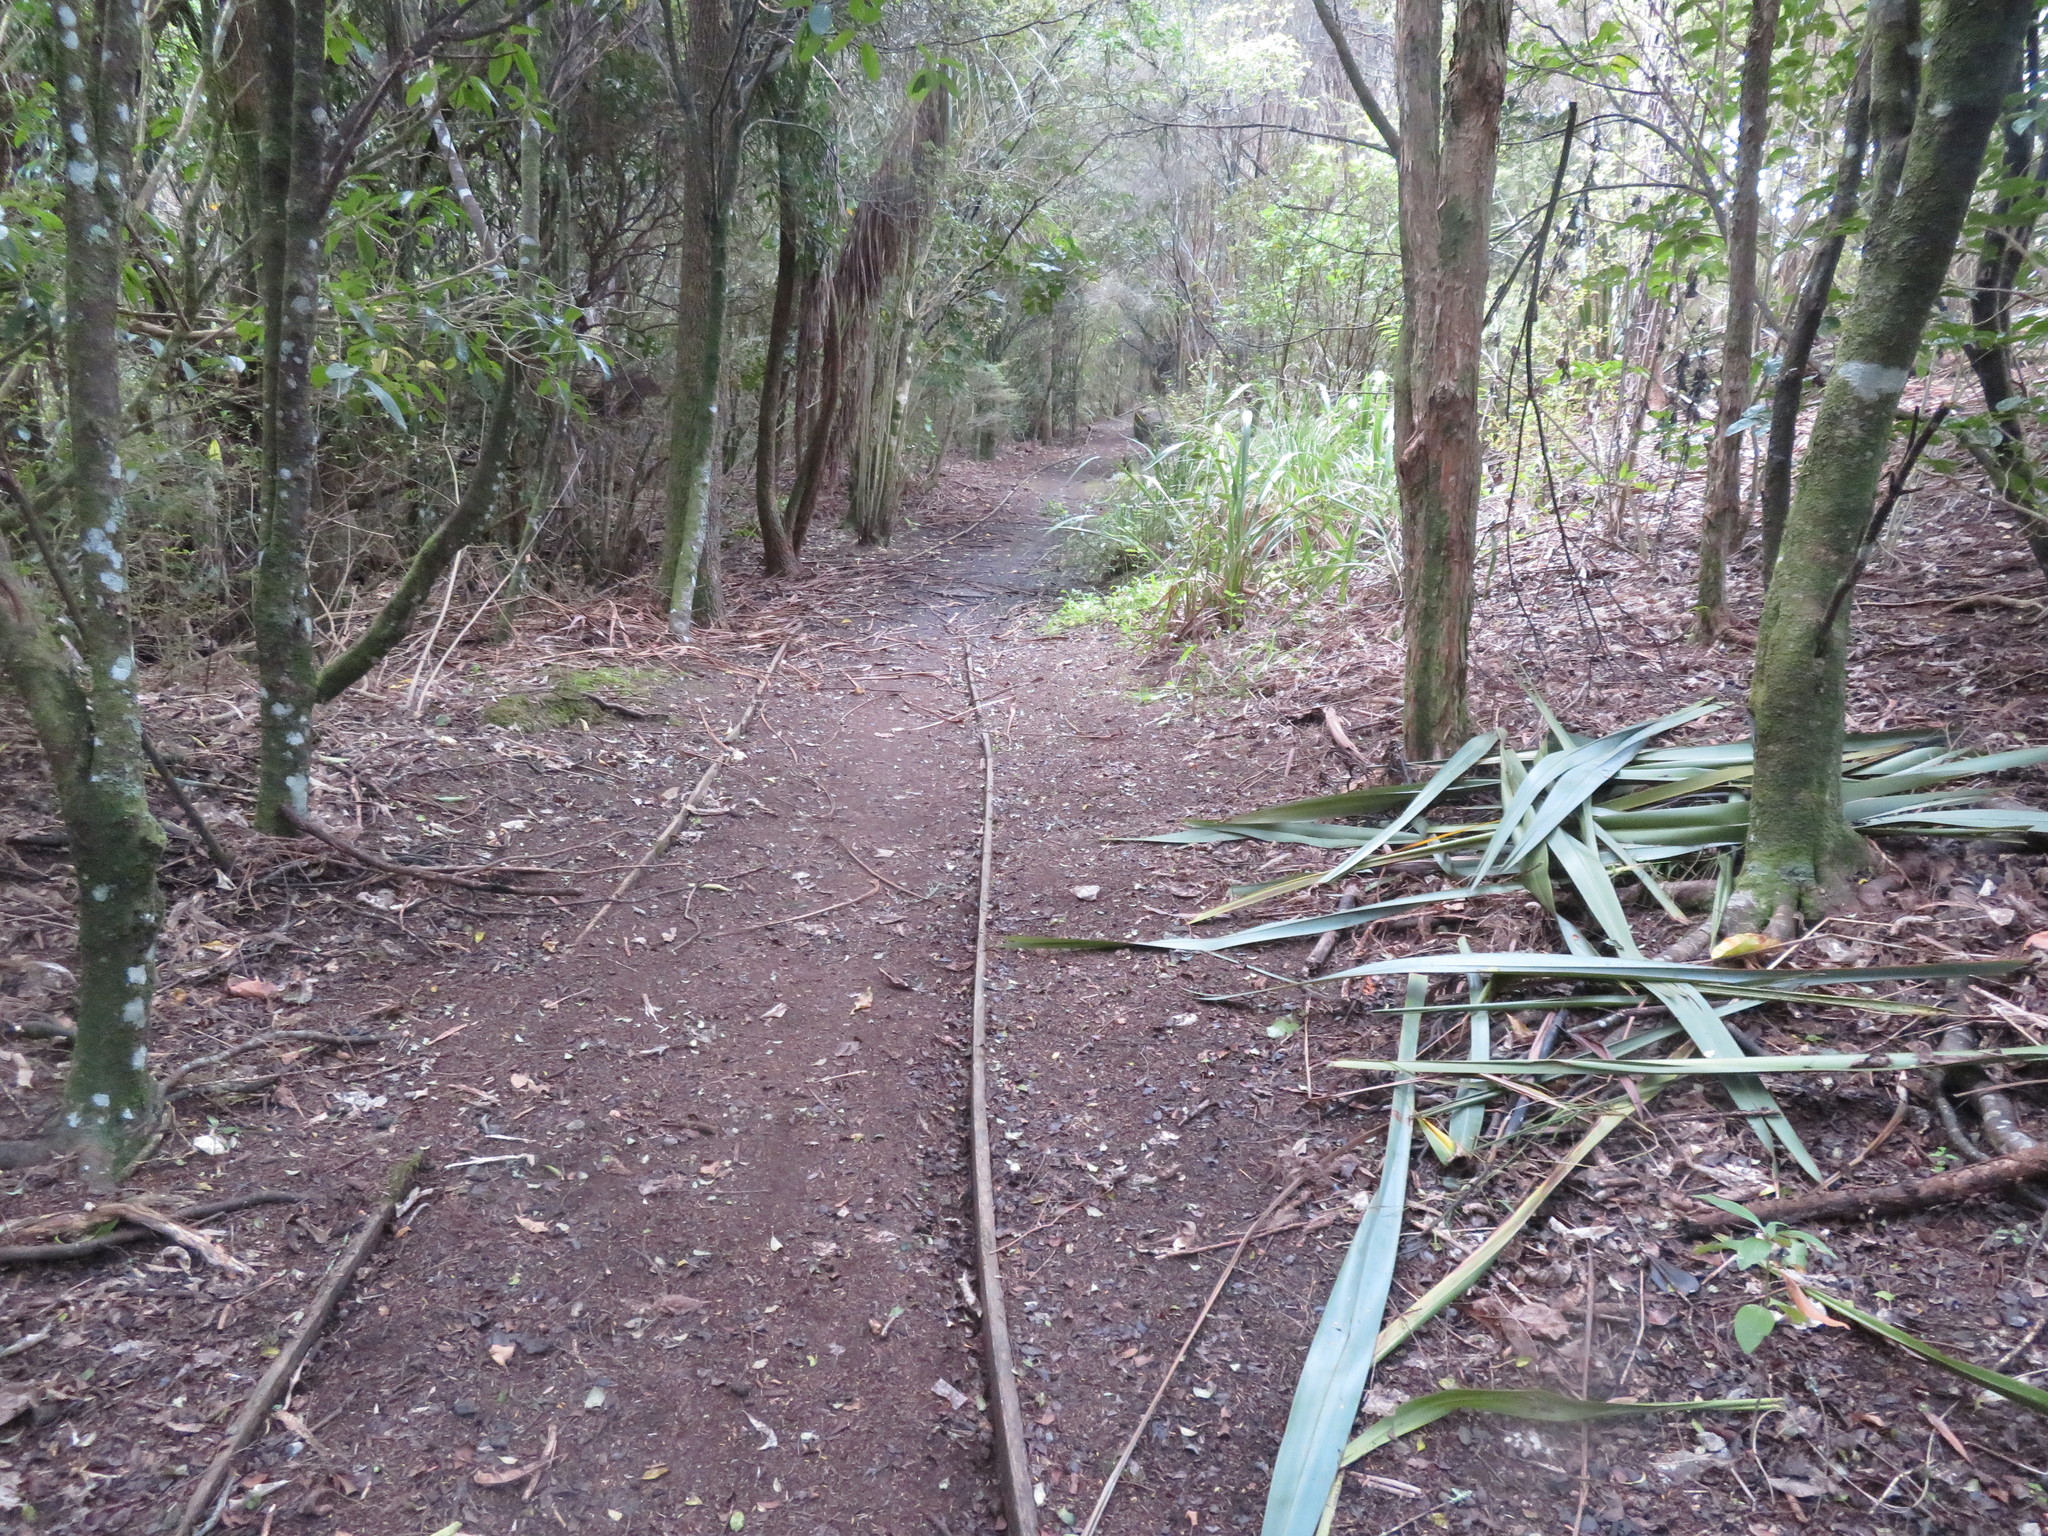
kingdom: Plantae
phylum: Tracheophyta
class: Liliopsida
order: Asparagales
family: Asphodelaceae
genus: Phormium
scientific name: Phormium tenax
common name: New zealand flax
